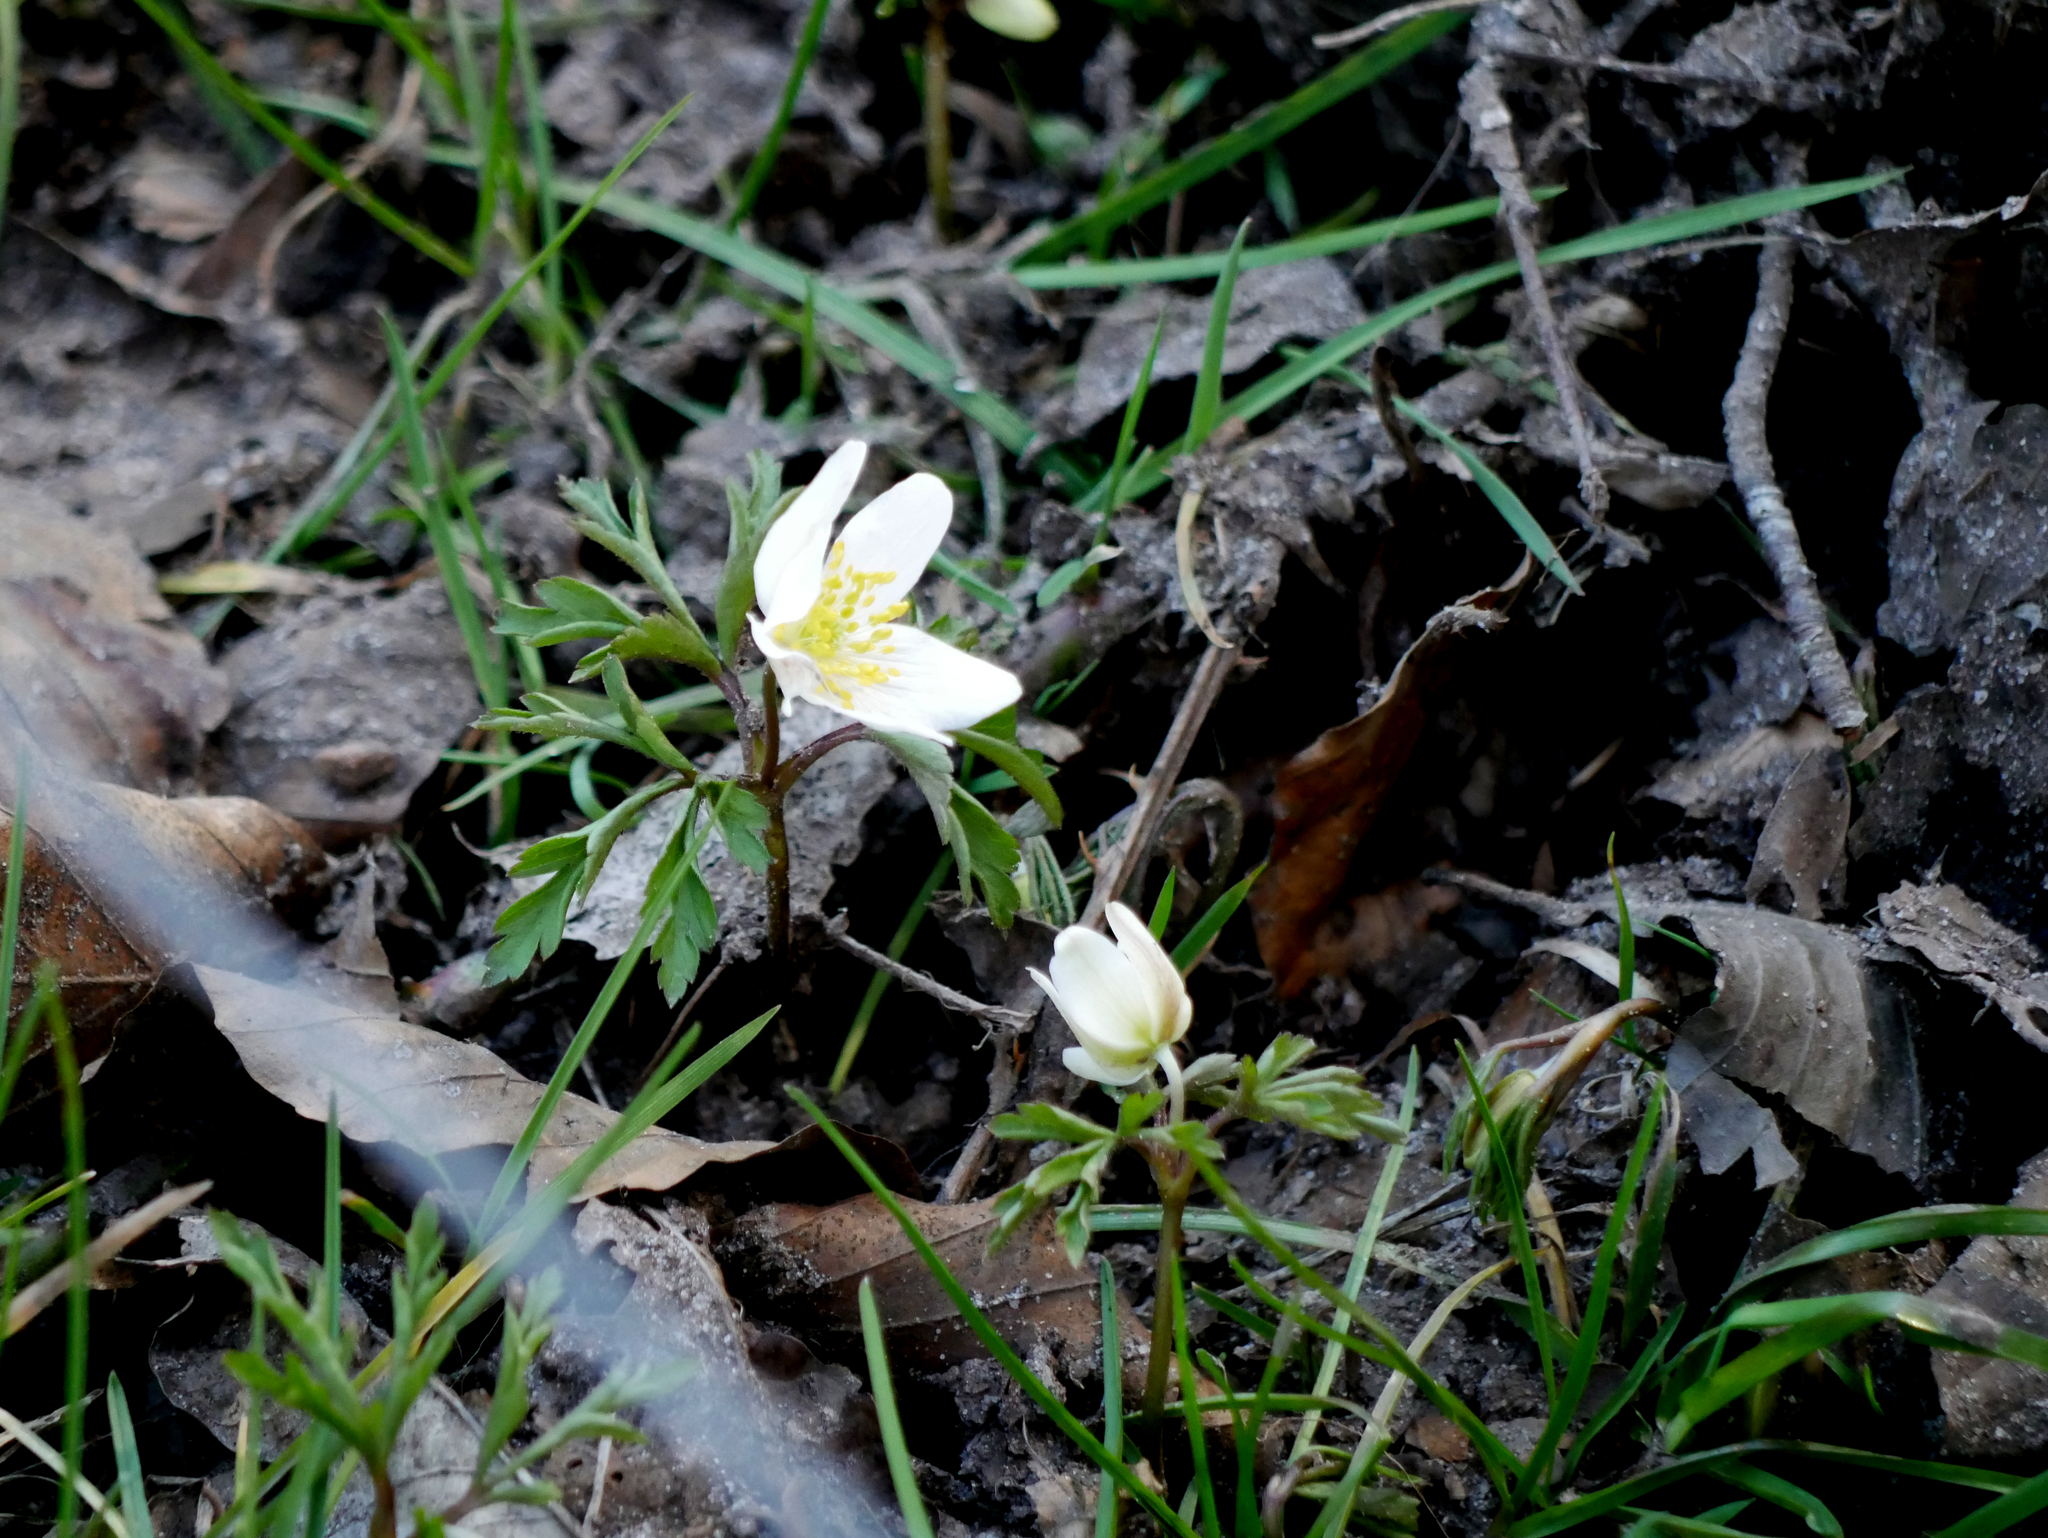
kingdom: Plantae
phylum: Tracheophyta
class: Magnoliopsida
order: Ranunculales
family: Ranunculaceae
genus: Anemone
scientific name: Anemone nemorosa
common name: Wood anemone
